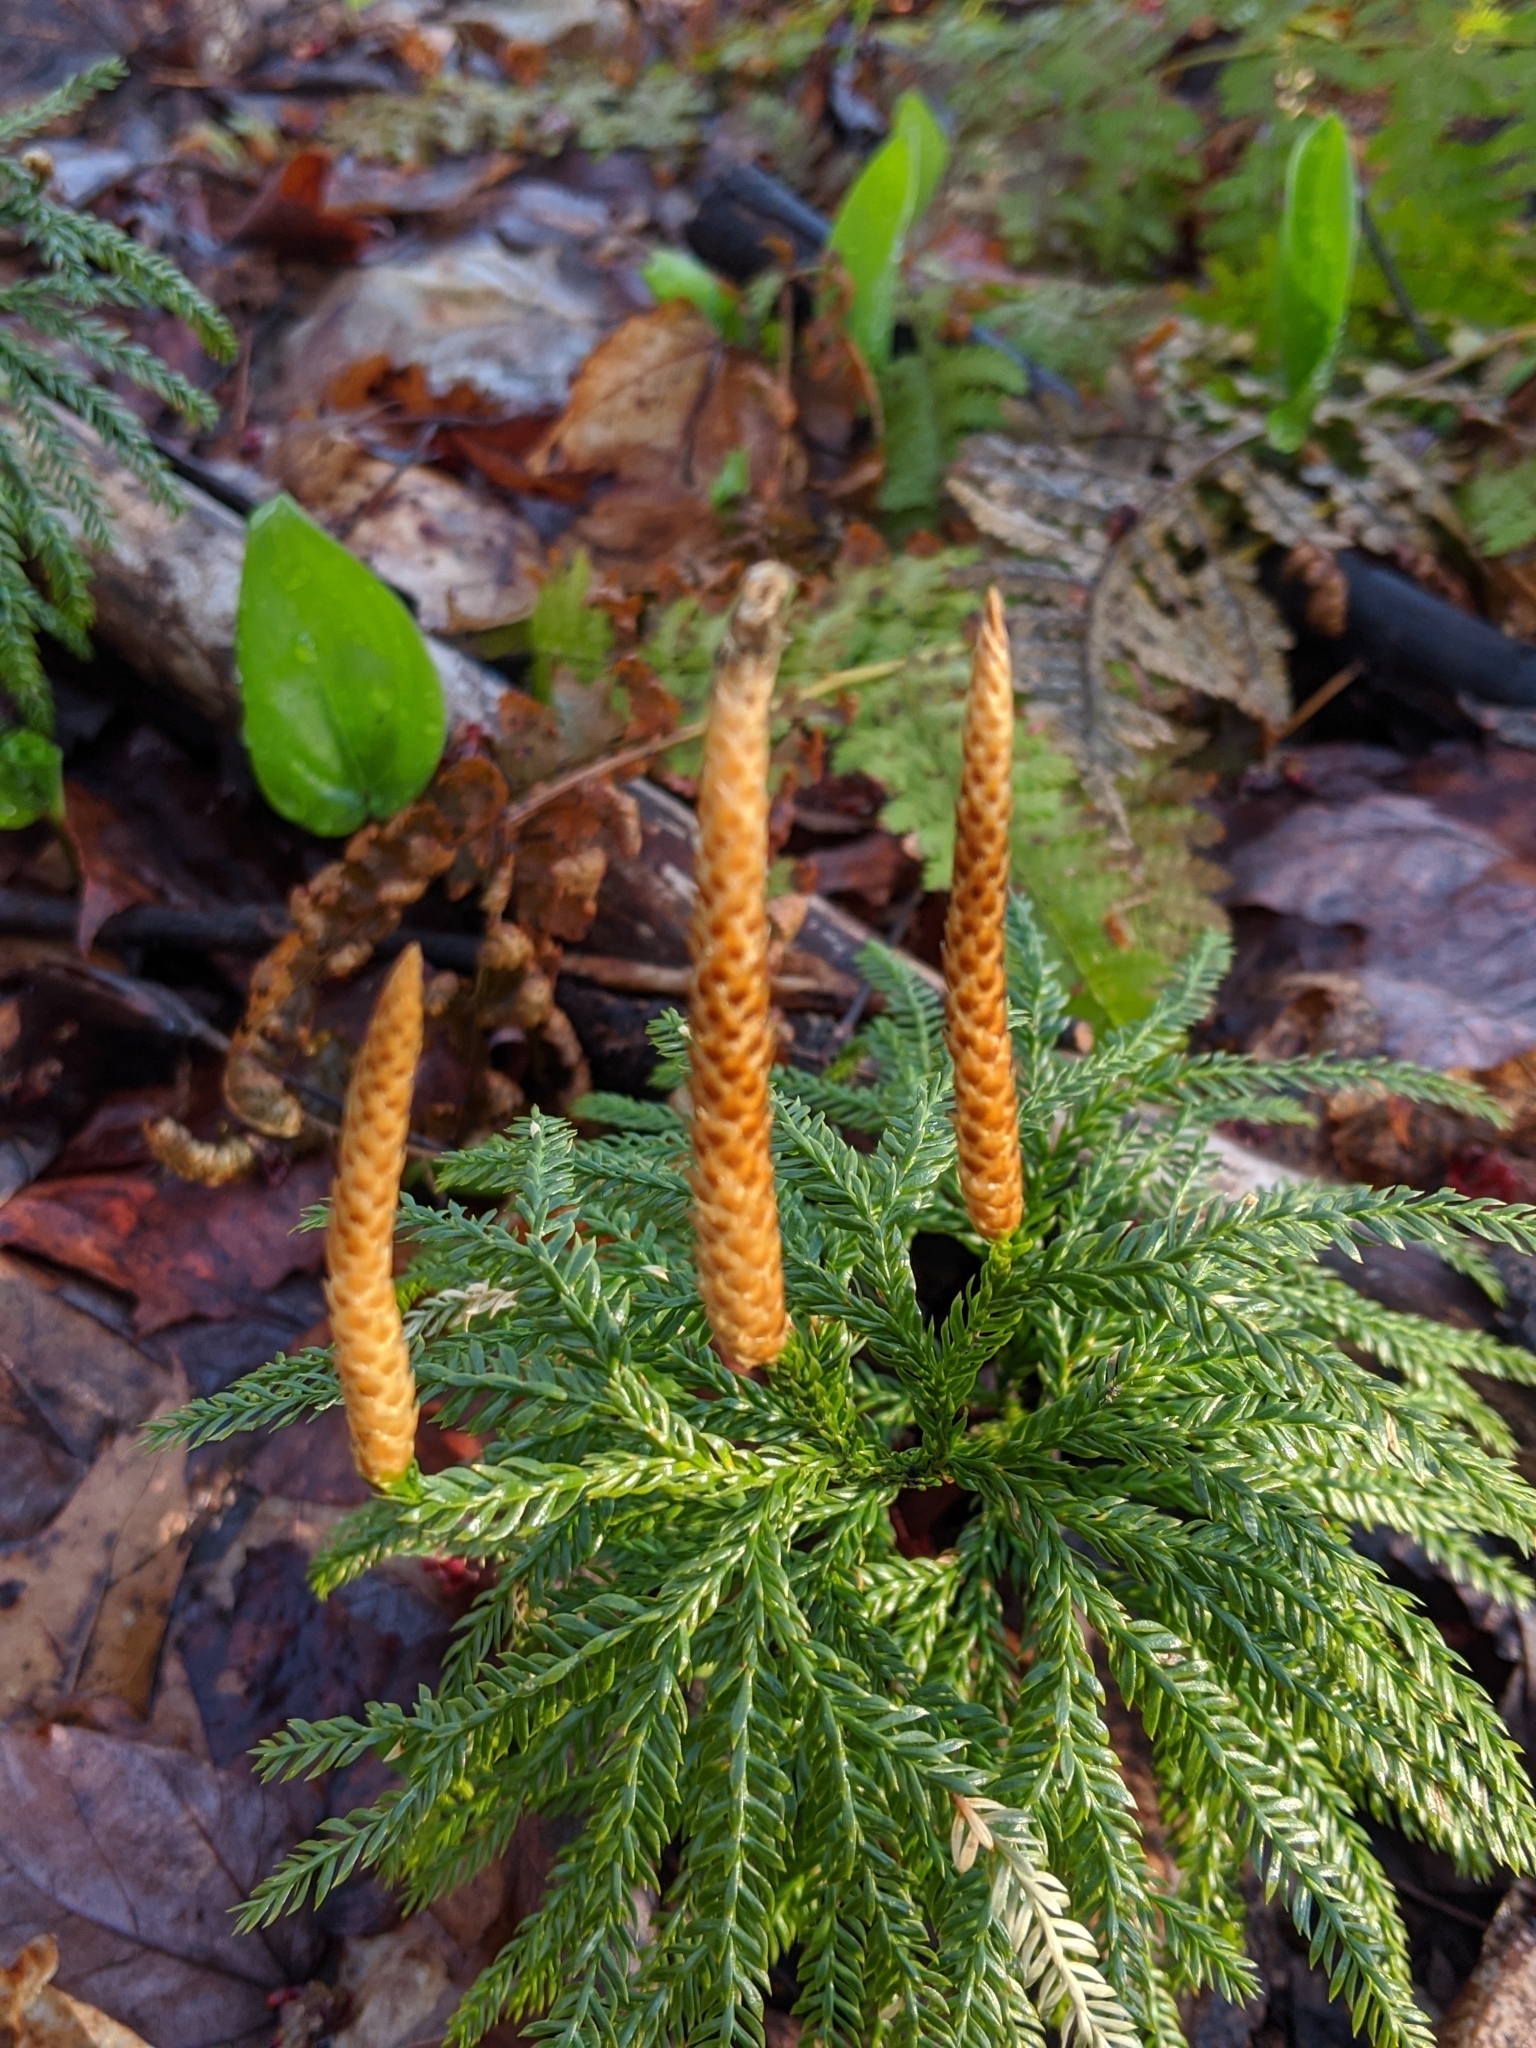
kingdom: Plantae
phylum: Tracheophyta
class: Lycopodiopsida
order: Lycopodiales
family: Lycopodiaceae
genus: Dendrolycopodium
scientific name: Dendrolycopodium obscurum
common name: Common ground-pine
